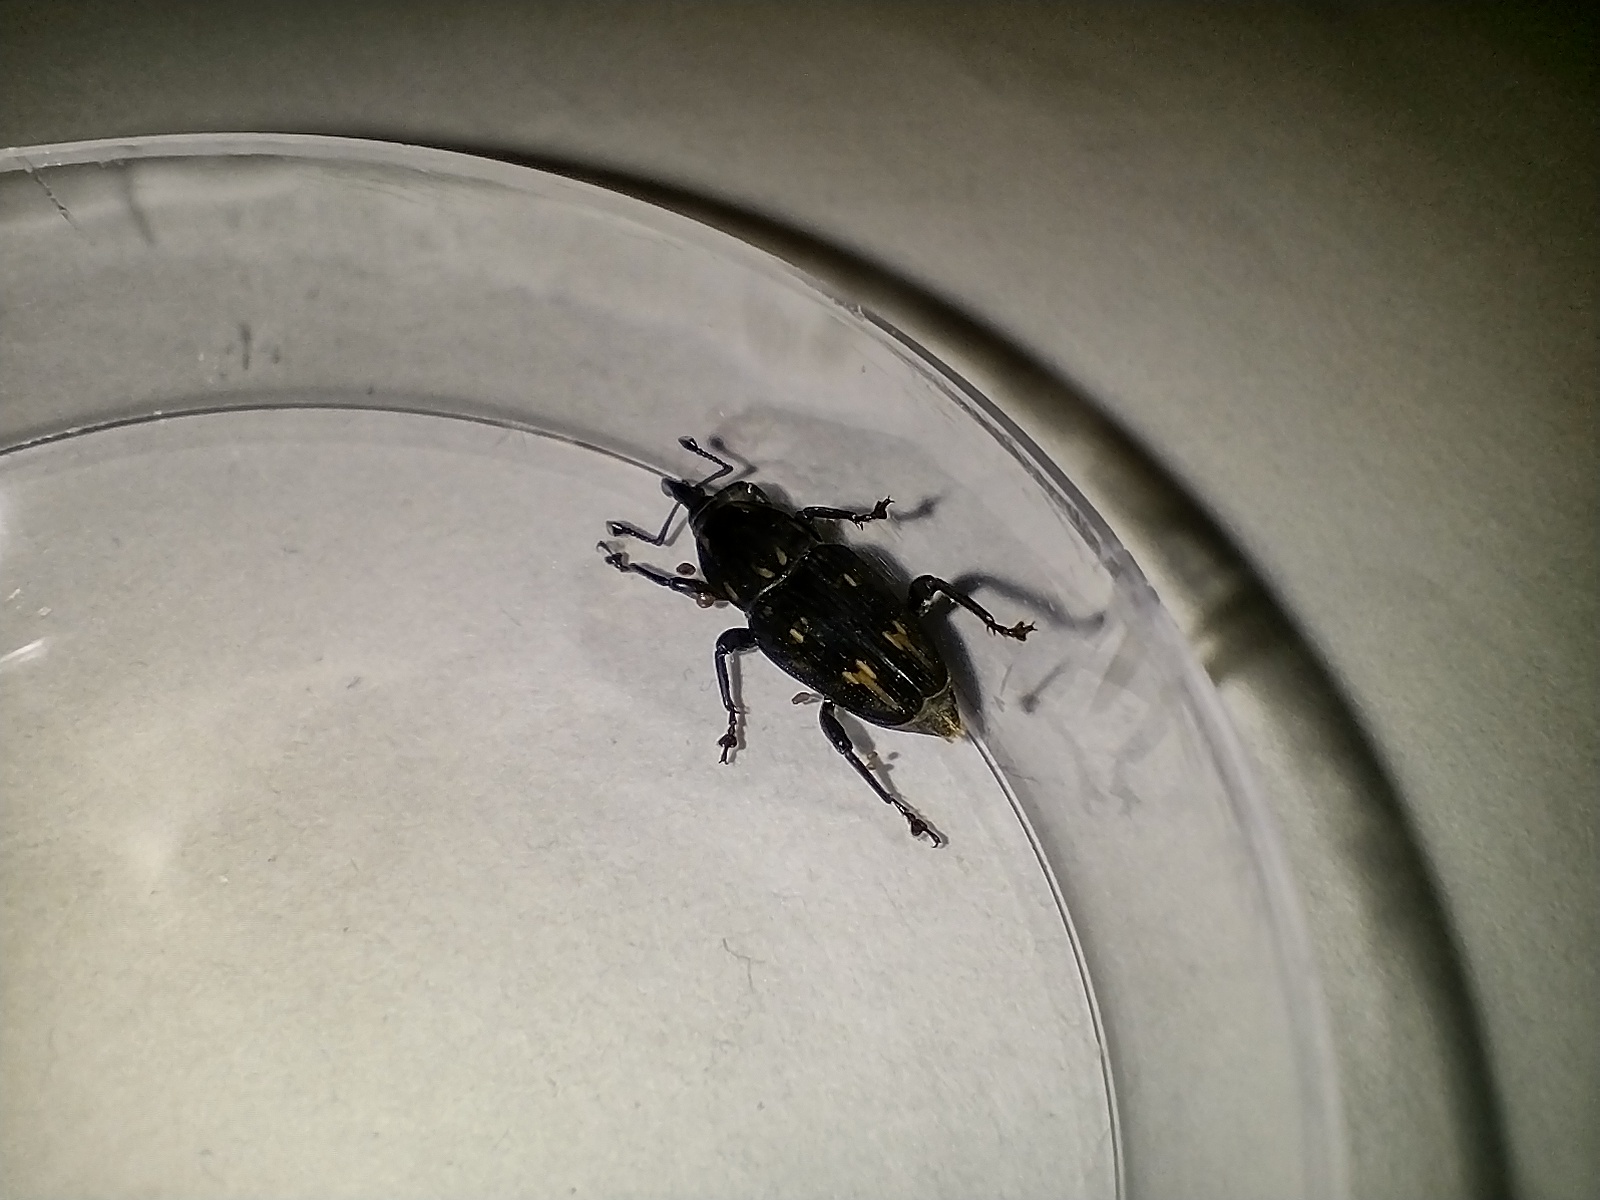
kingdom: Animalia
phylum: Arthropoda
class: Insecta
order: Coleoptera
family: Dryophthoridae
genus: Metamasius
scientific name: Metamasius ensirostris
